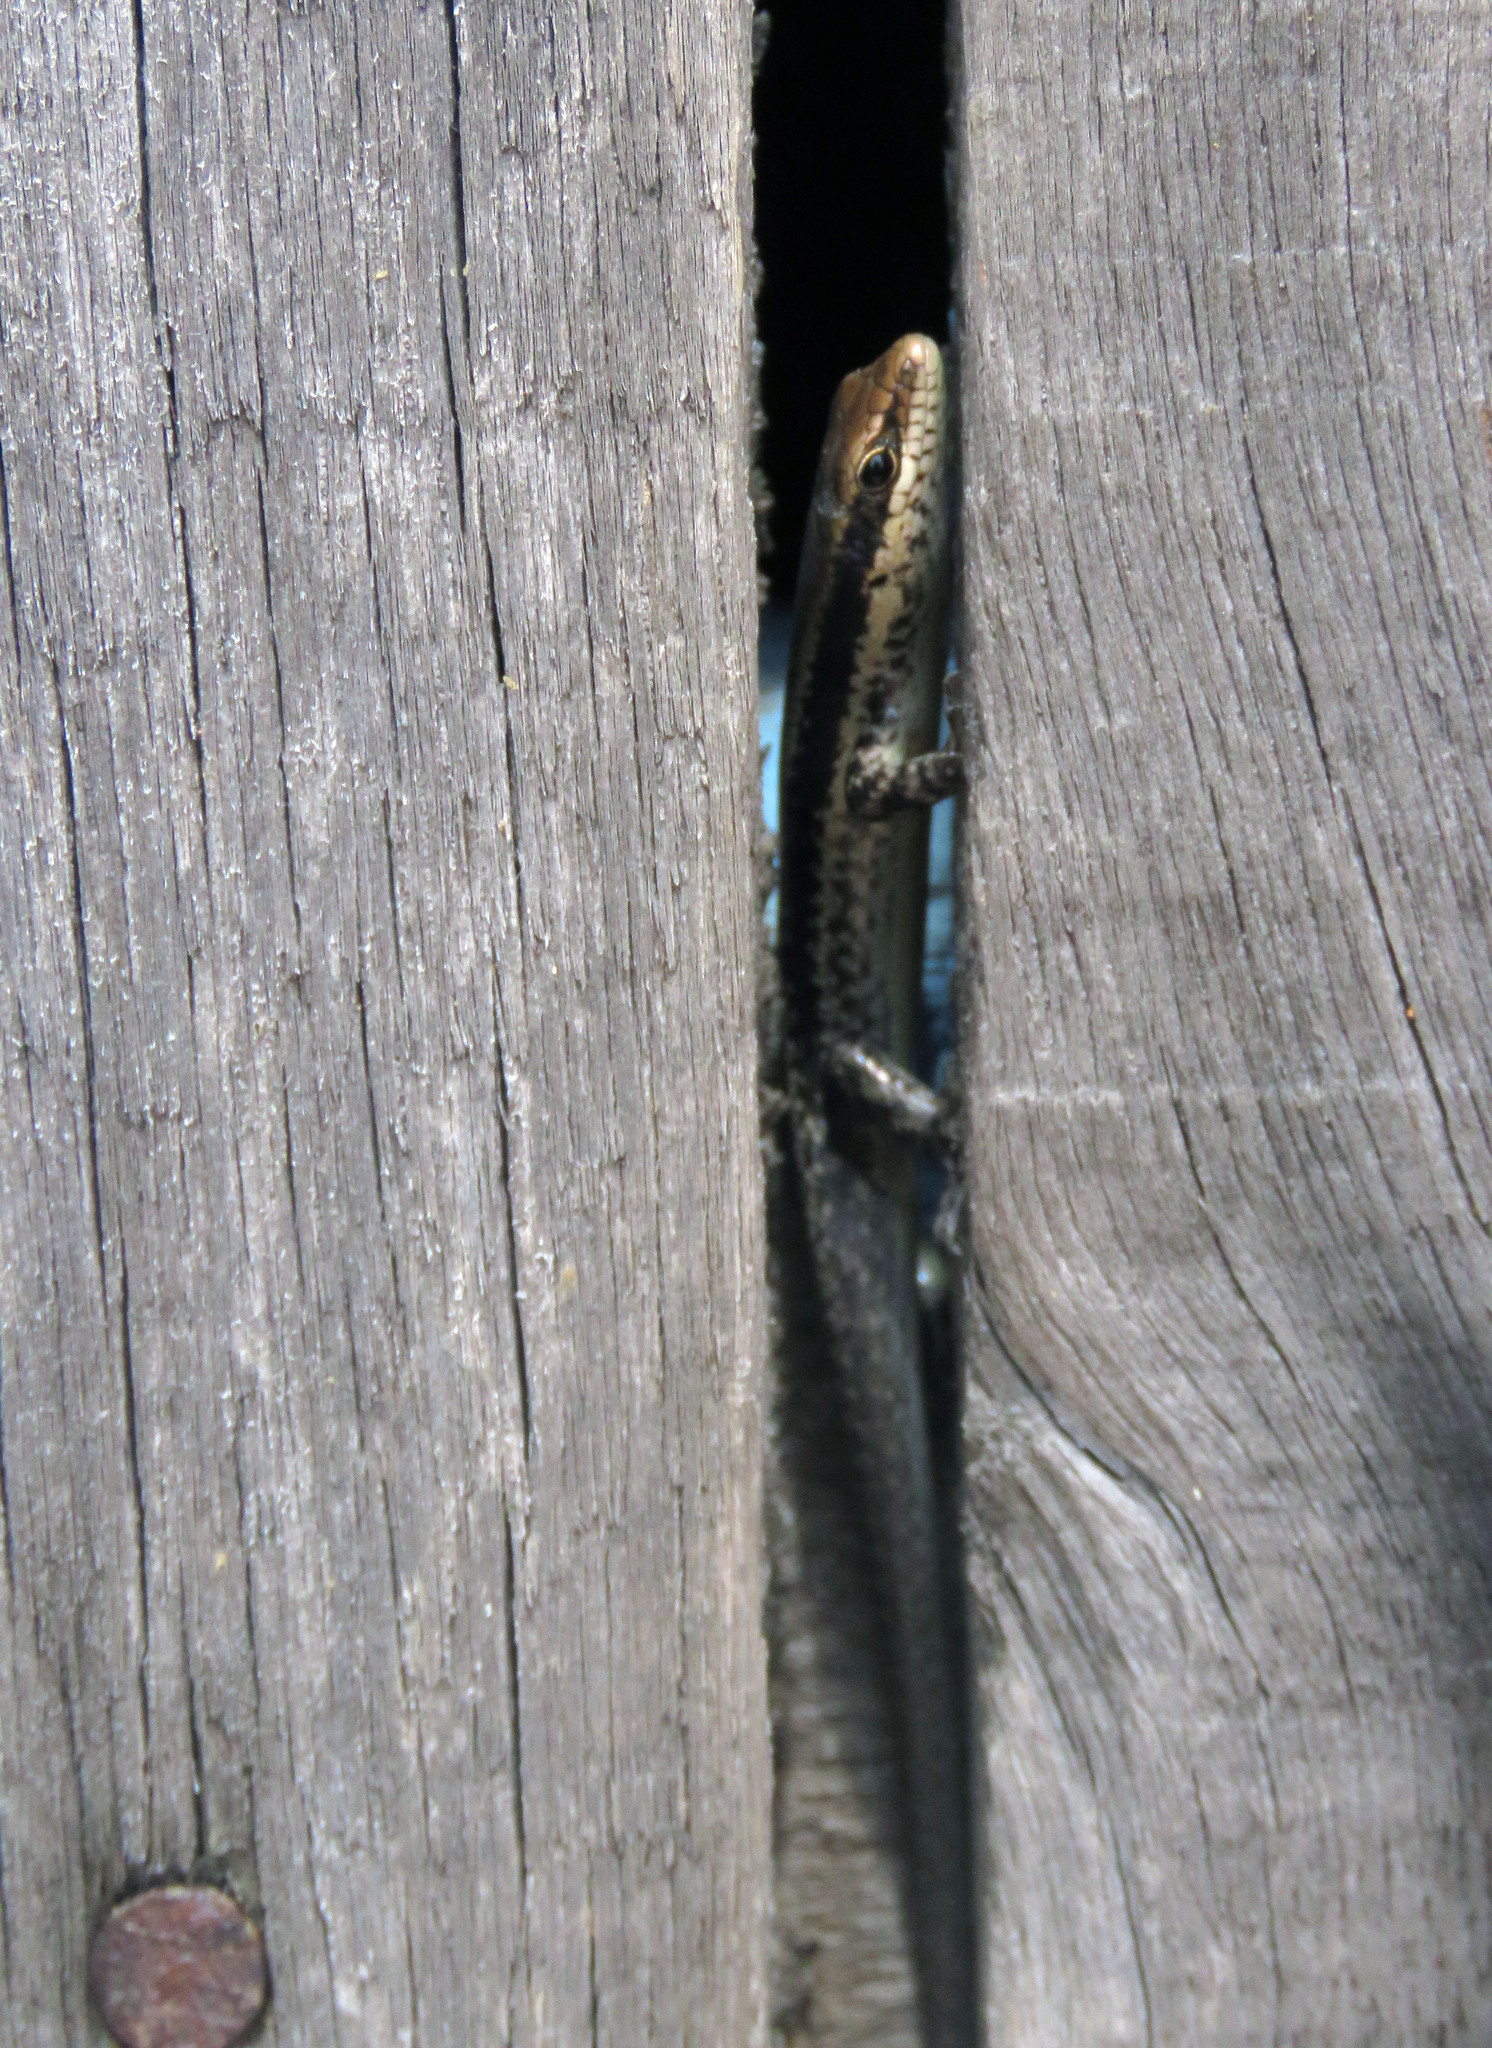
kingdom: Animalia
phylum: Chordata
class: Squamata
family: Scincidae
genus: Manciola
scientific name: Manciola guaporicola
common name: Dunn's mabuya
